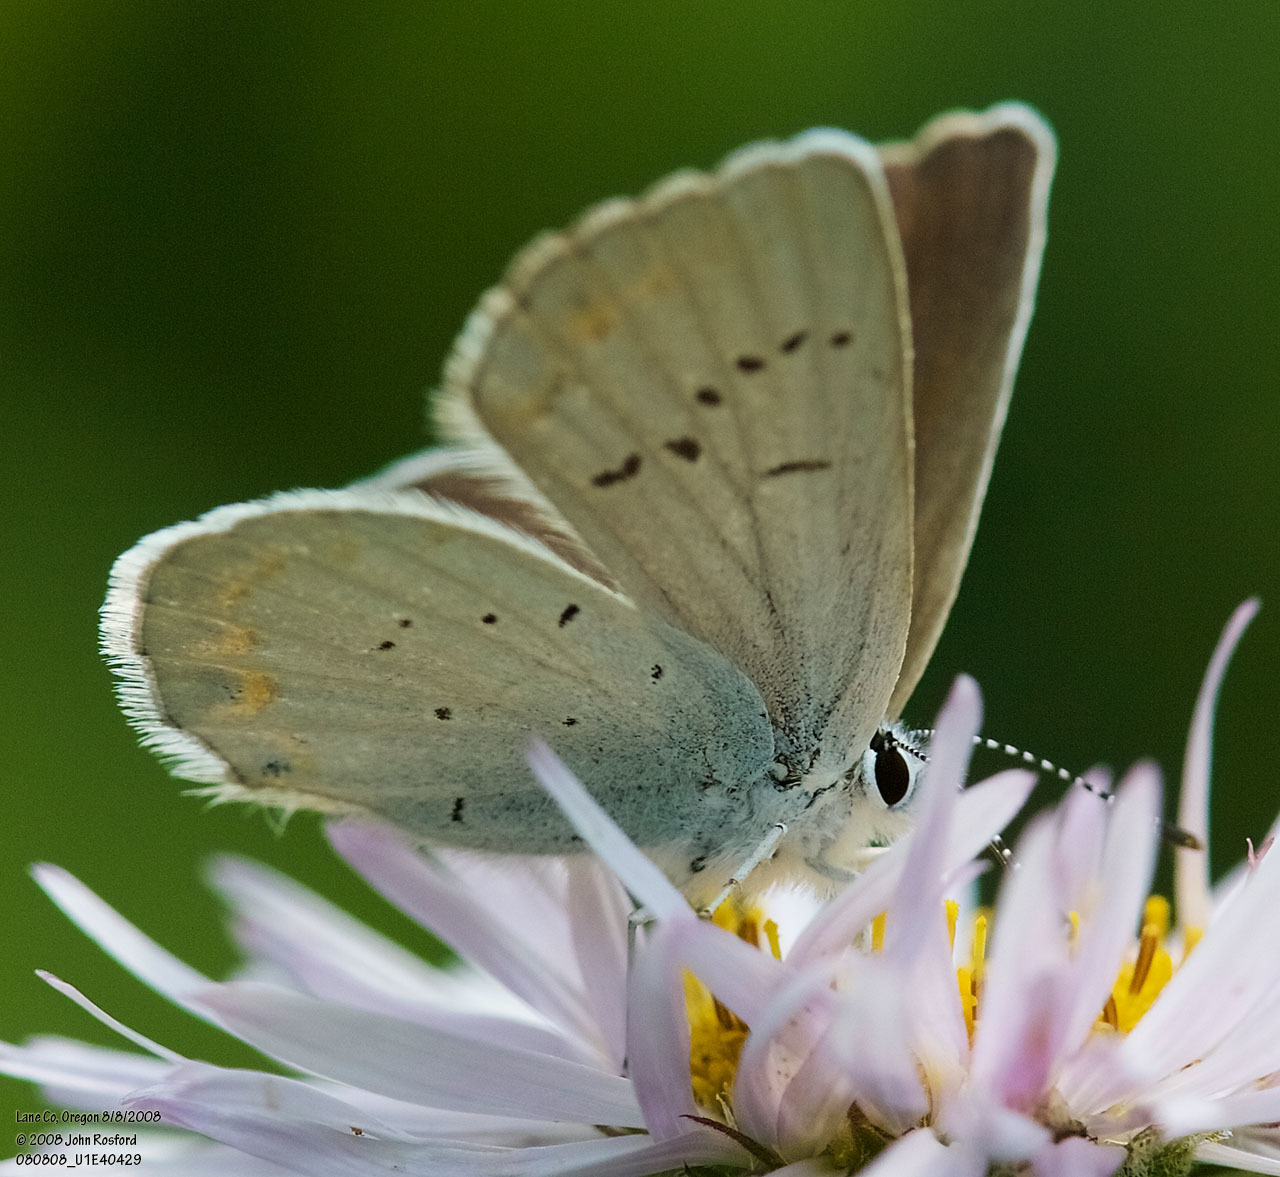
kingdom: Animalia
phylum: Arthropoda
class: Insecta
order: Lepidoptera
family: Lycaenidae
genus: Lycaeides
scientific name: Lycaeides anna
